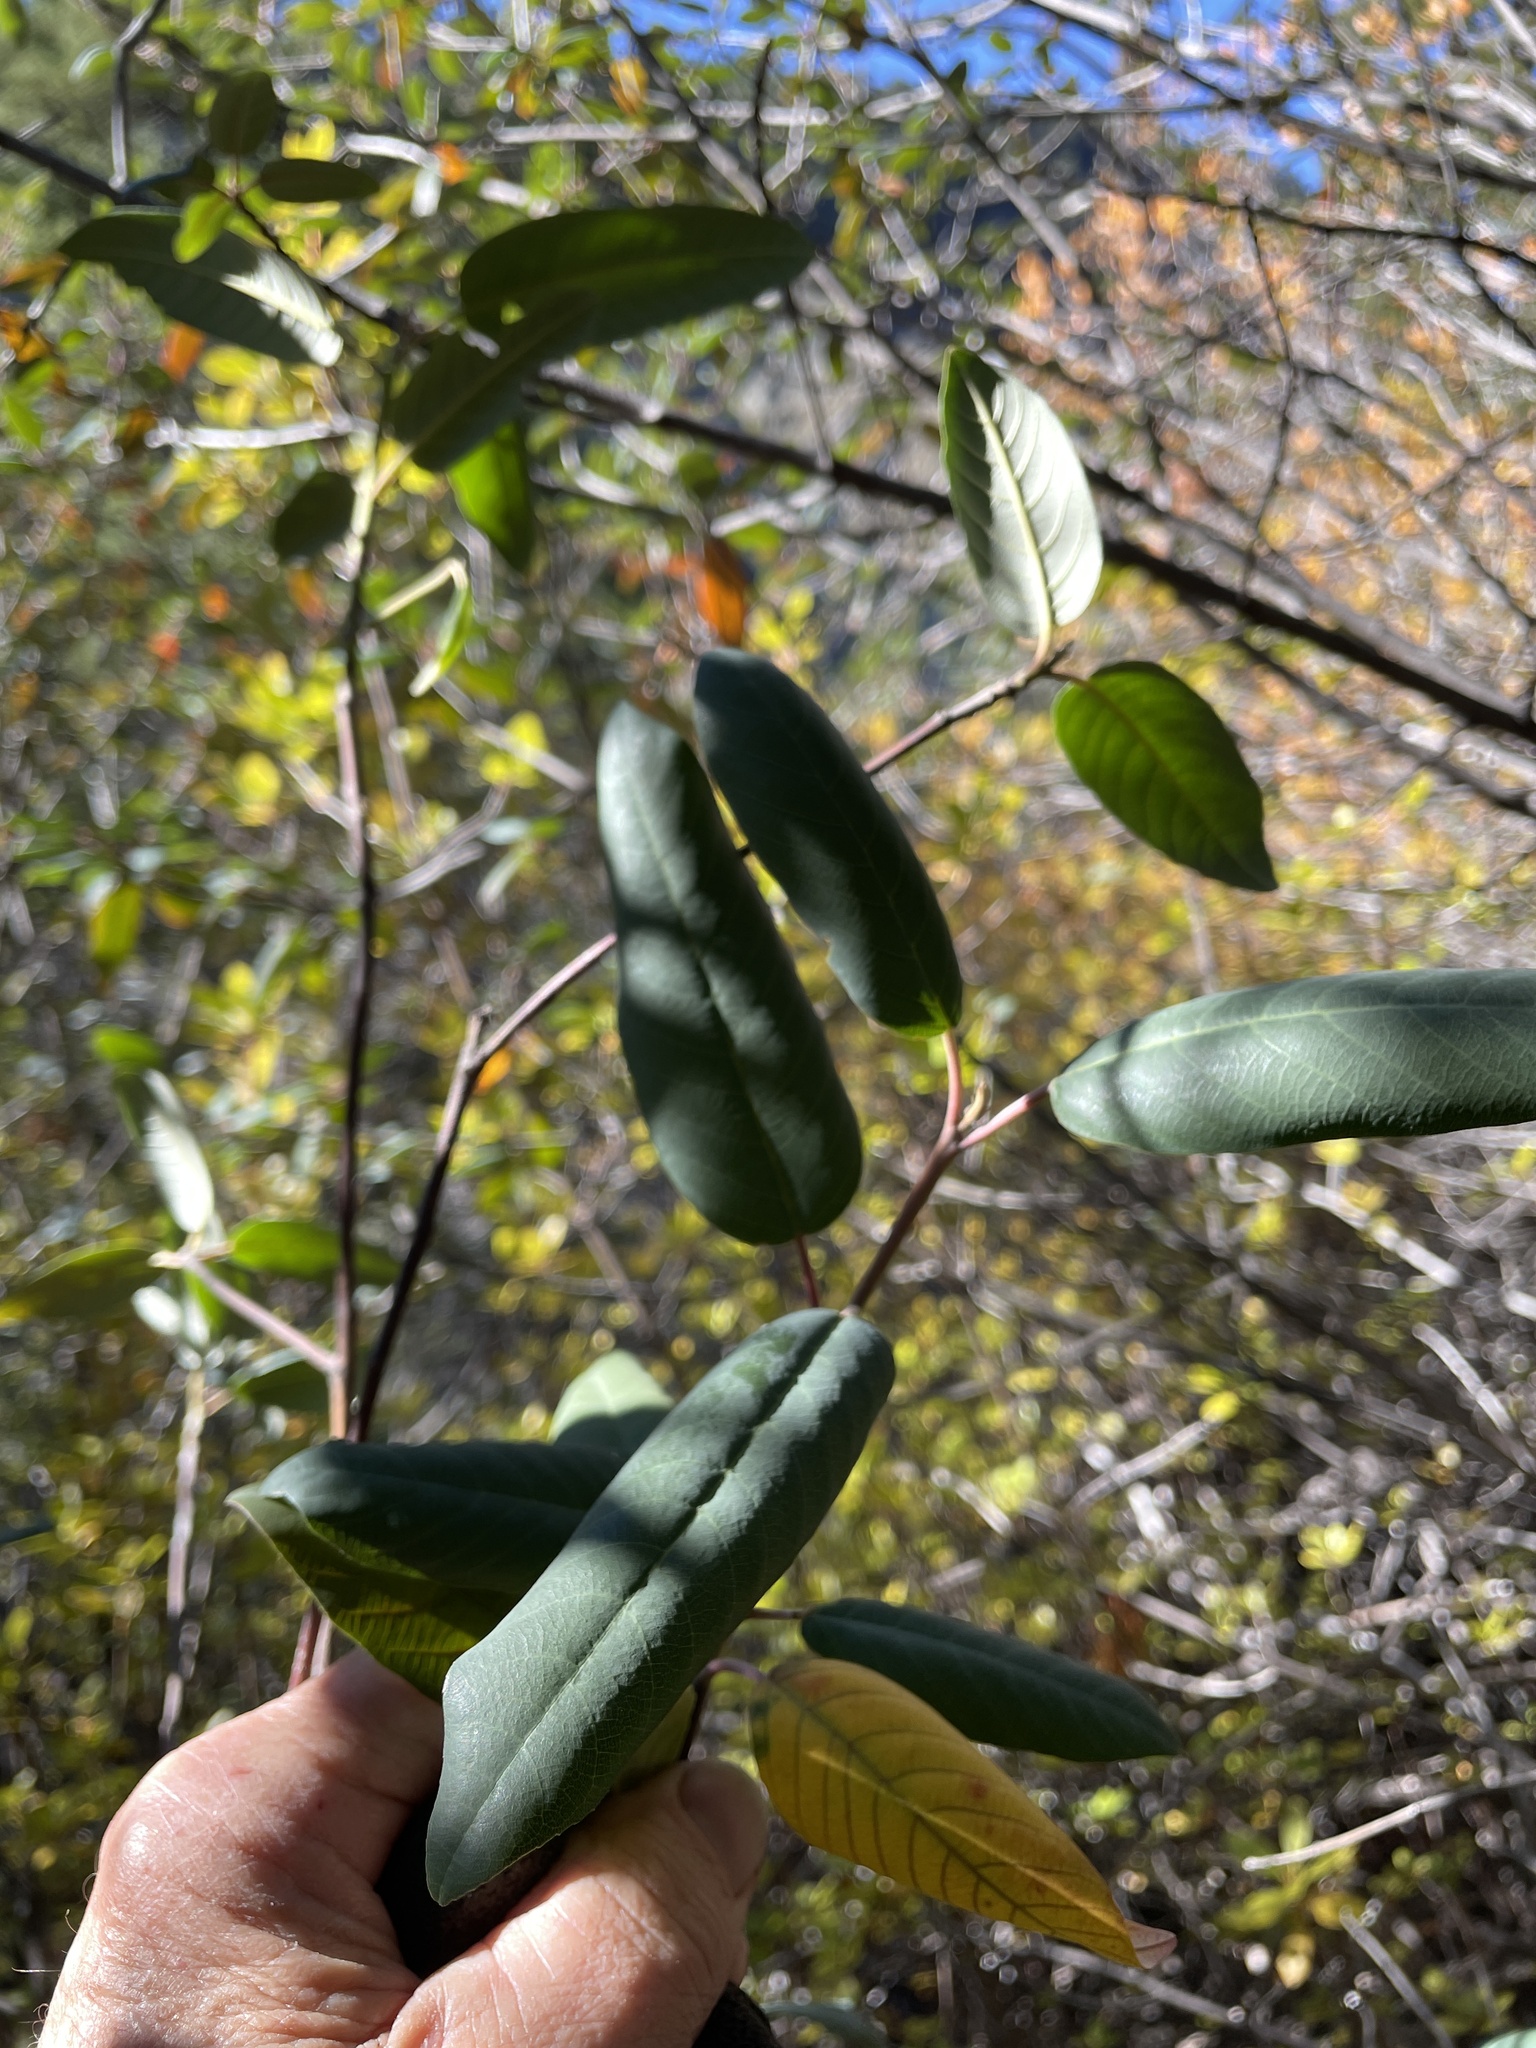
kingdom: Plantae
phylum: Tracheophyta
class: Magnoliopsida
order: Rosales
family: Rhamnaceae
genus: Frangula
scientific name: Frangula californica
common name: California buckthorn
